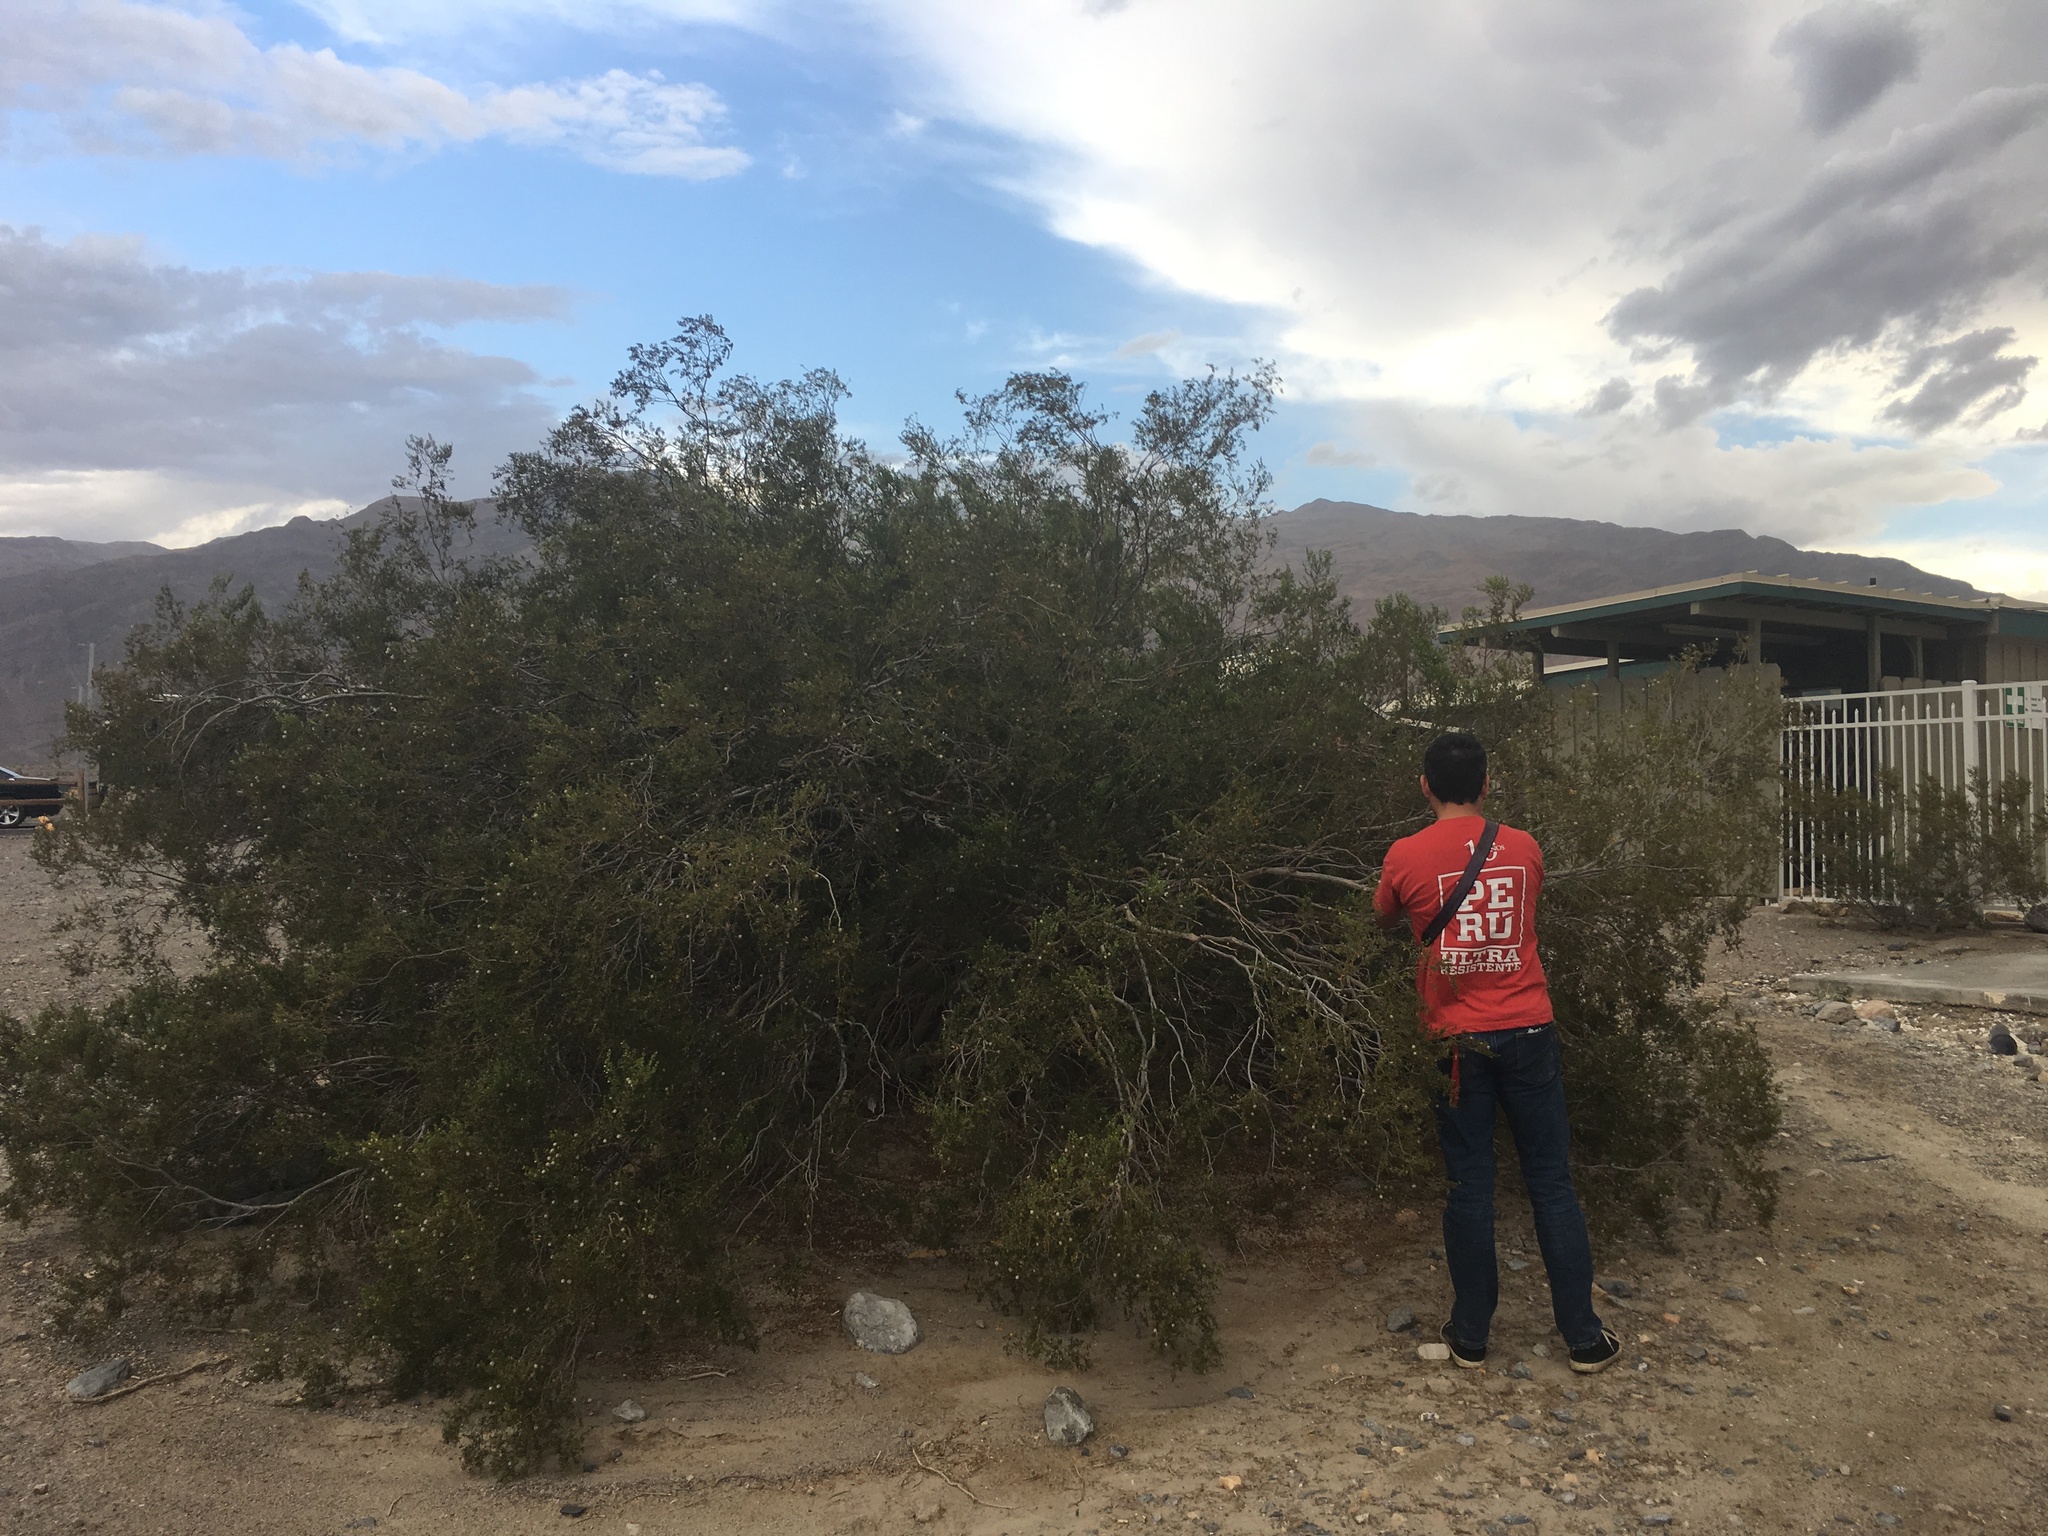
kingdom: Plantae
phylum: Tracheophyta
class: Magnoliopsida
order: Zygophyllales
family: Zygophyllaceae
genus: Larrea
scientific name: Larrea tridentata
